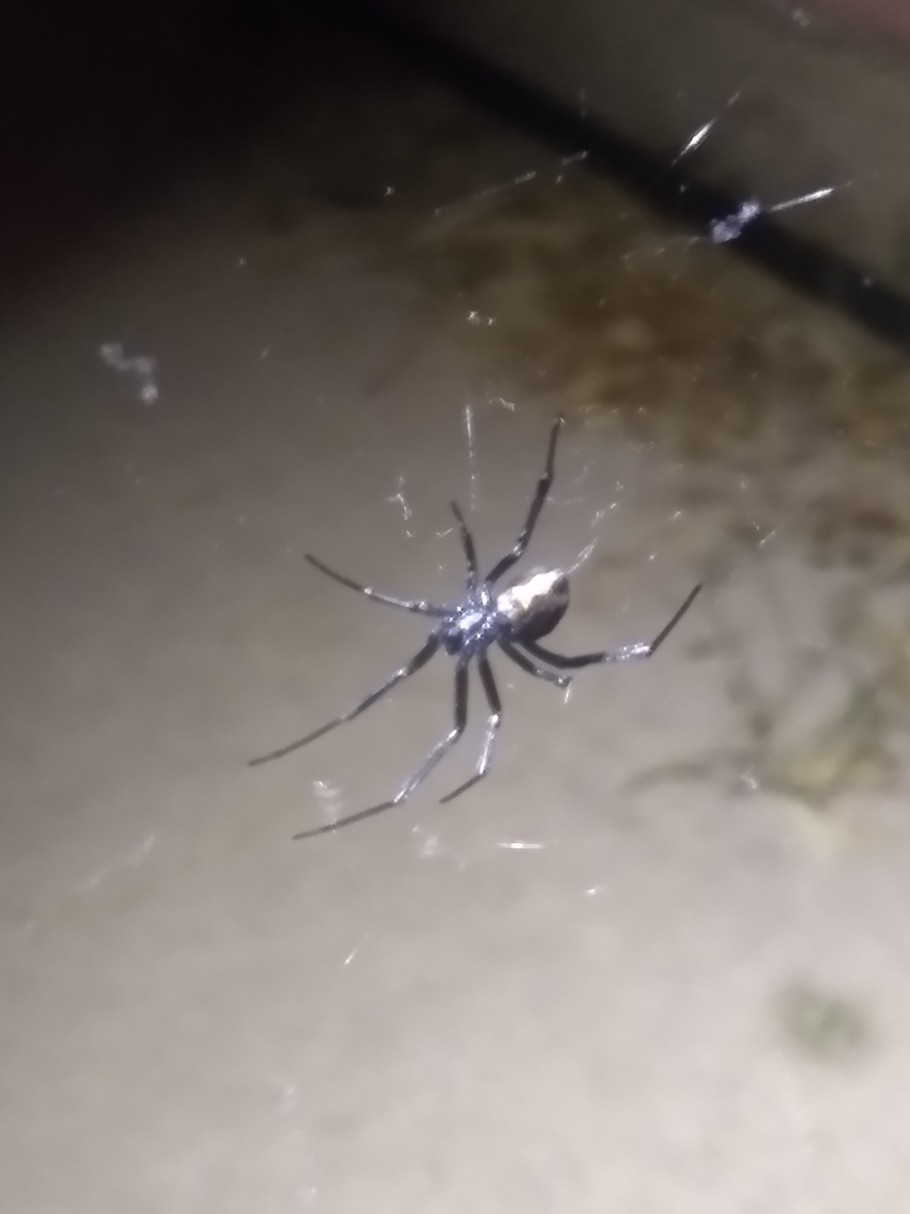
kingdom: Animalia
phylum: Arthropoda
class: Arachnida
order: Araneae
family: Theridiidae
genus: Latrodectus
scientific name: Latrodectus hesperus
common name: Western black widow
